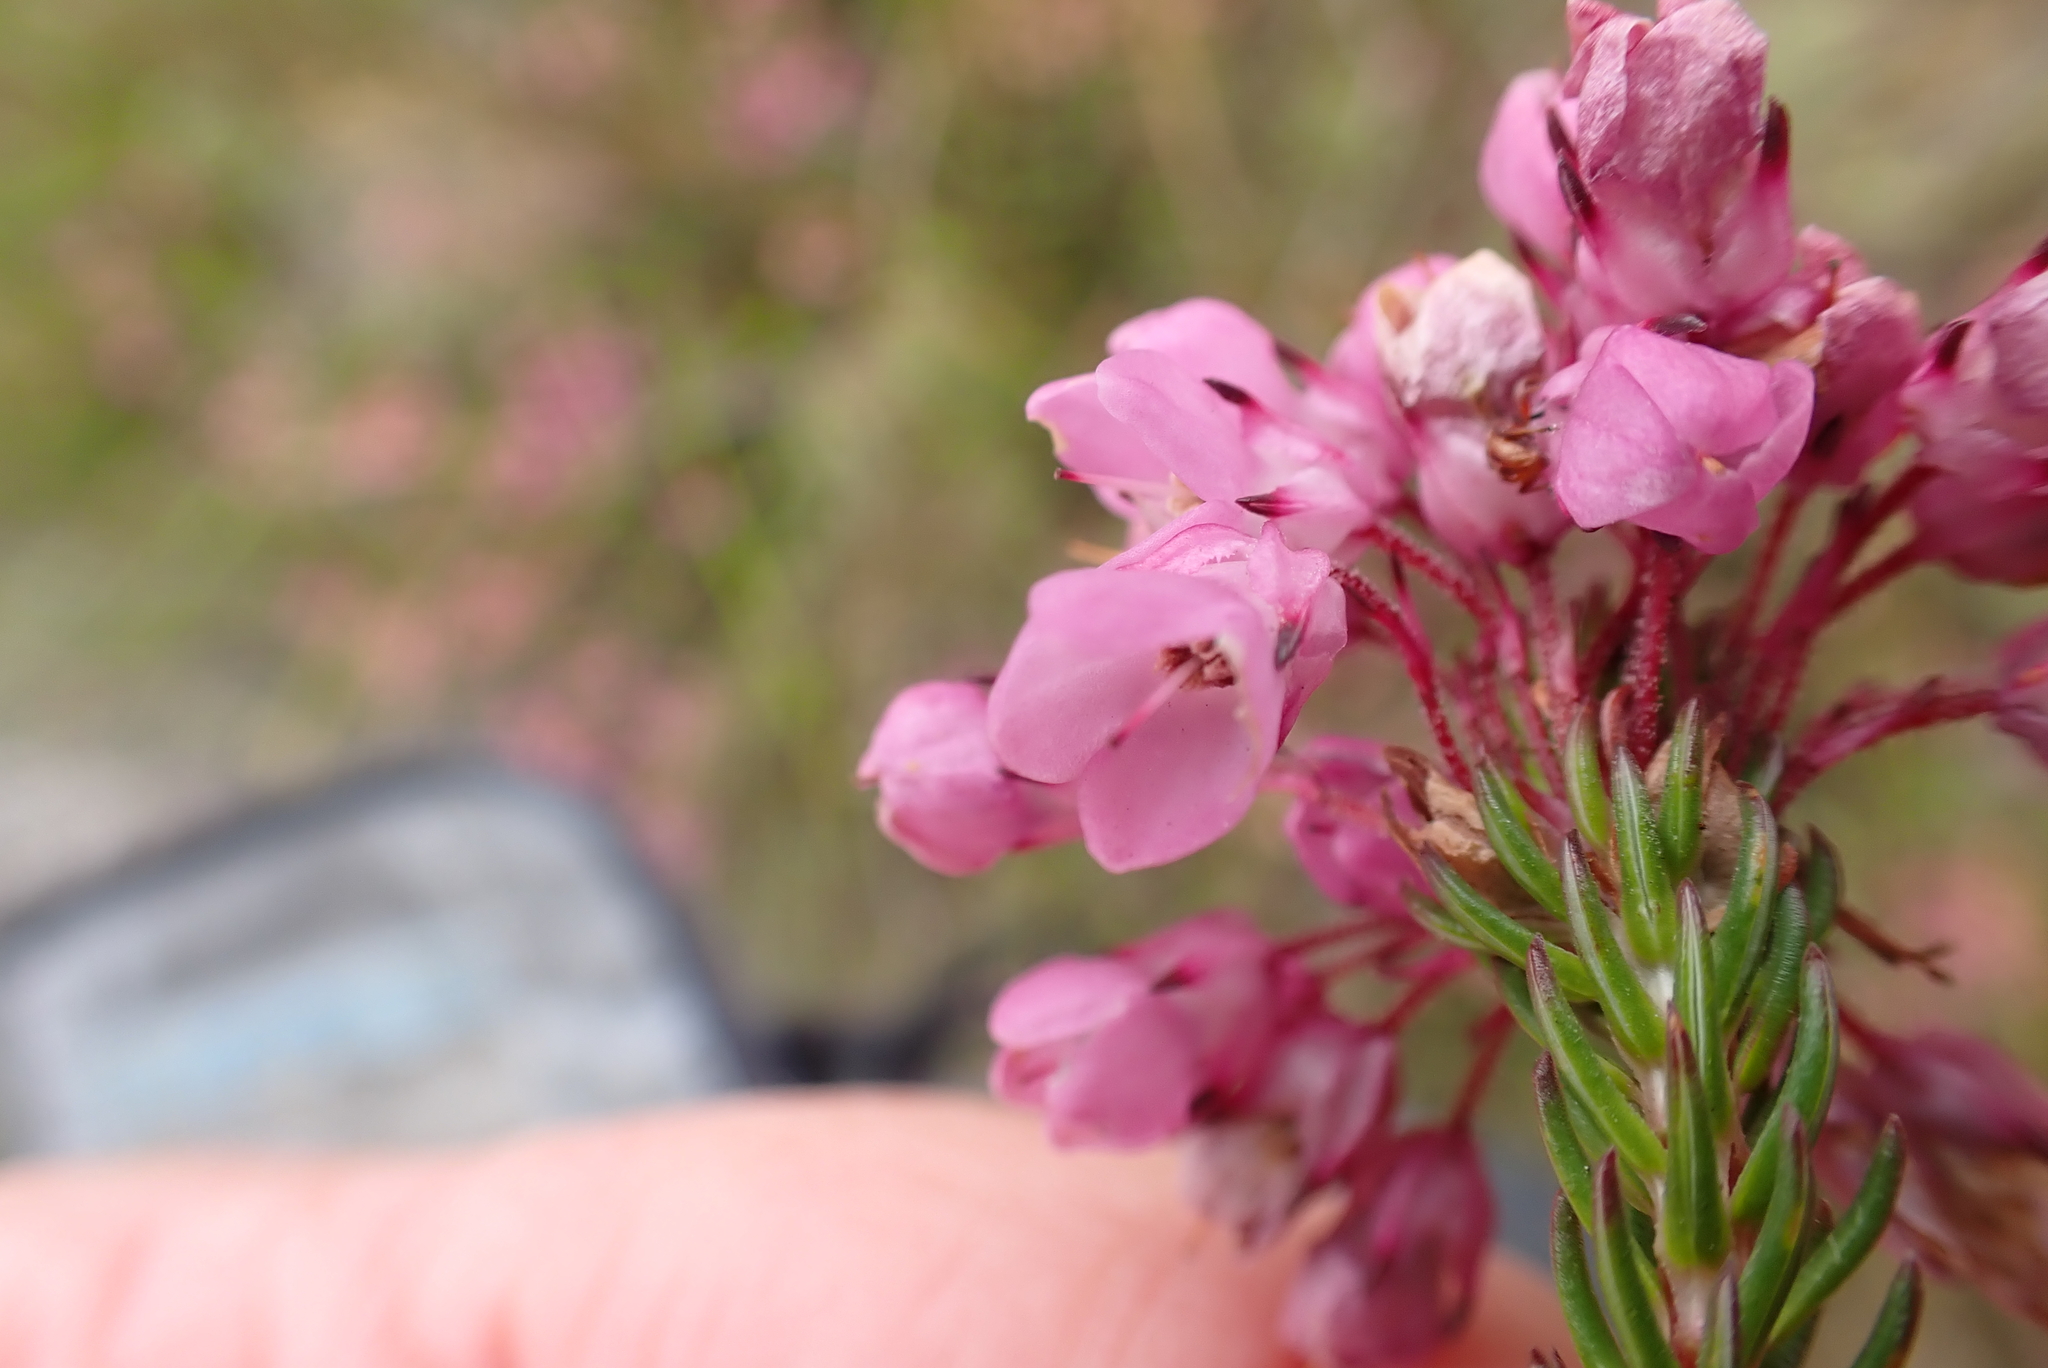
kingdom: Plantae
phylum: Tracheophyta
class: Magnoliopsida
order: Ericales
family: Ericaceae
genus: Erica
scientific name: Erica cubica
